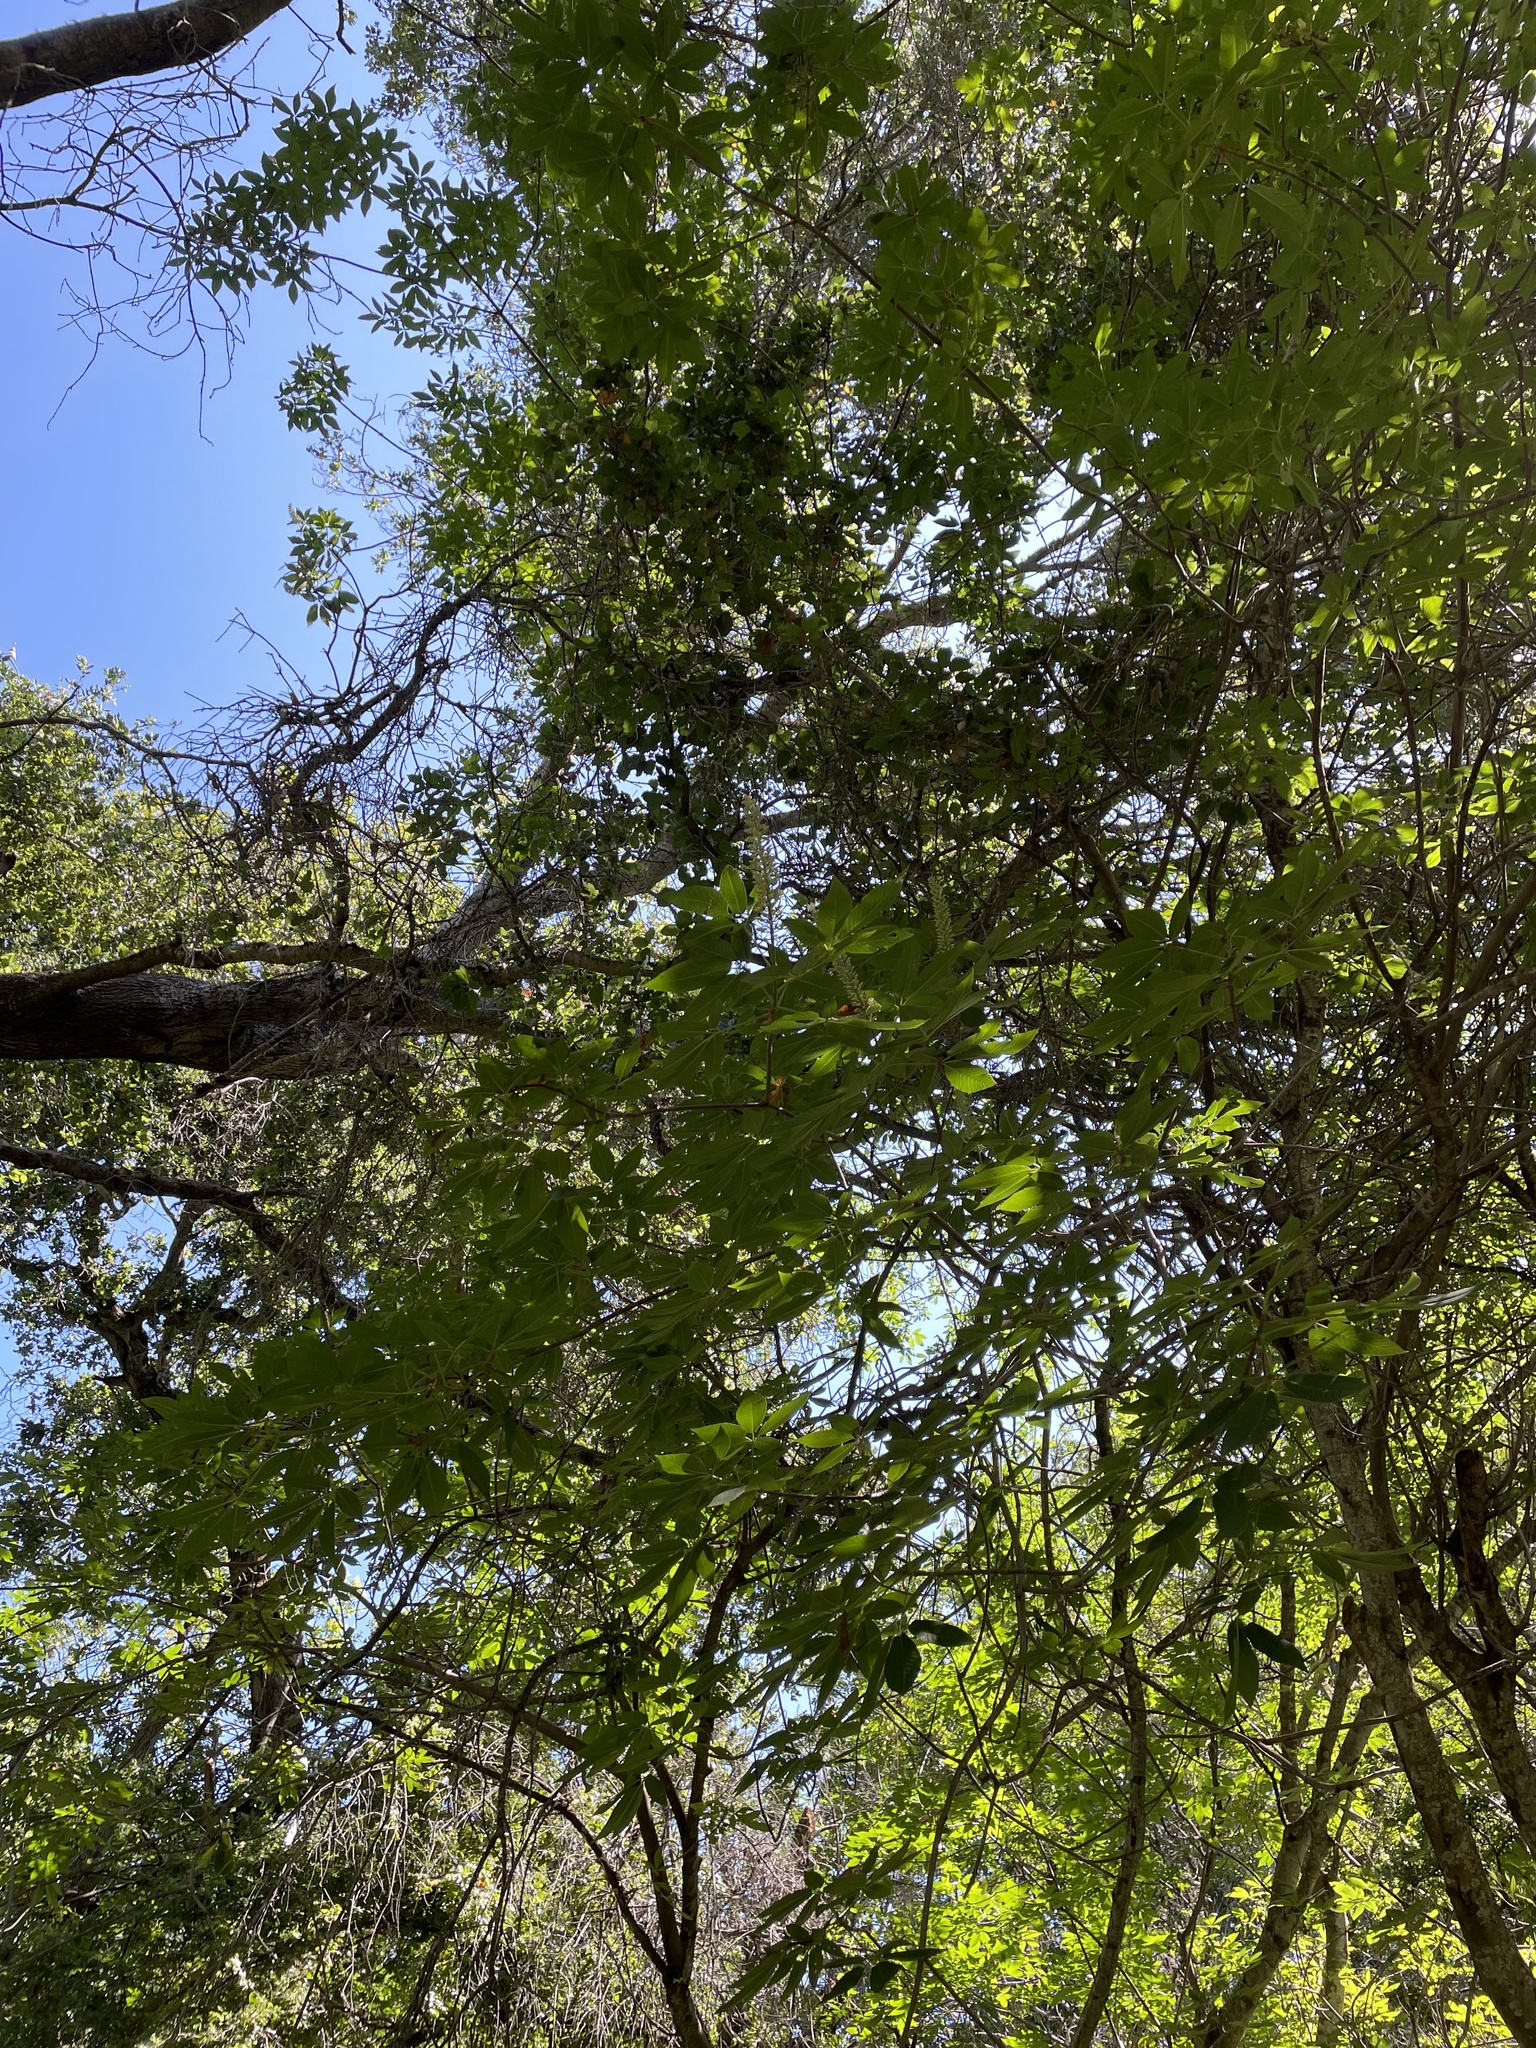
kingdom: Plantae
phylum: Tracheophyta
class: Magnoliopsida
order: Sapindales
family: Sapindaceae
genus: Aesculus
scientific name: Aesculus californica
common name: California buckeye
